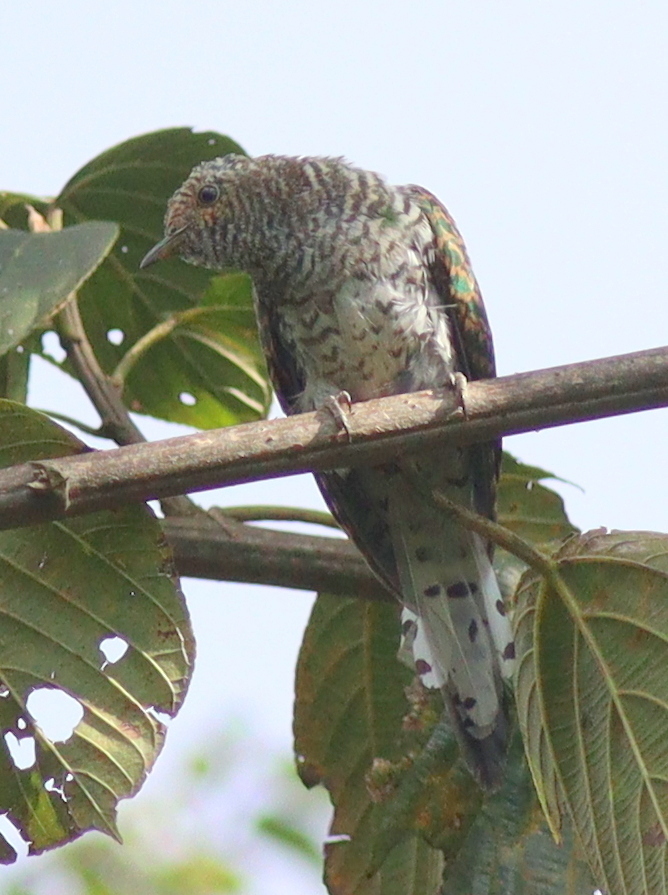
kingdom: Animalia
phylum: Chordata
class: Aves
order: Cuculiformes
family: Cuculidae
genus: Chrysococcyx
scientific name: Chrysococcyx klaas
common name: Klaas's cuckoo
